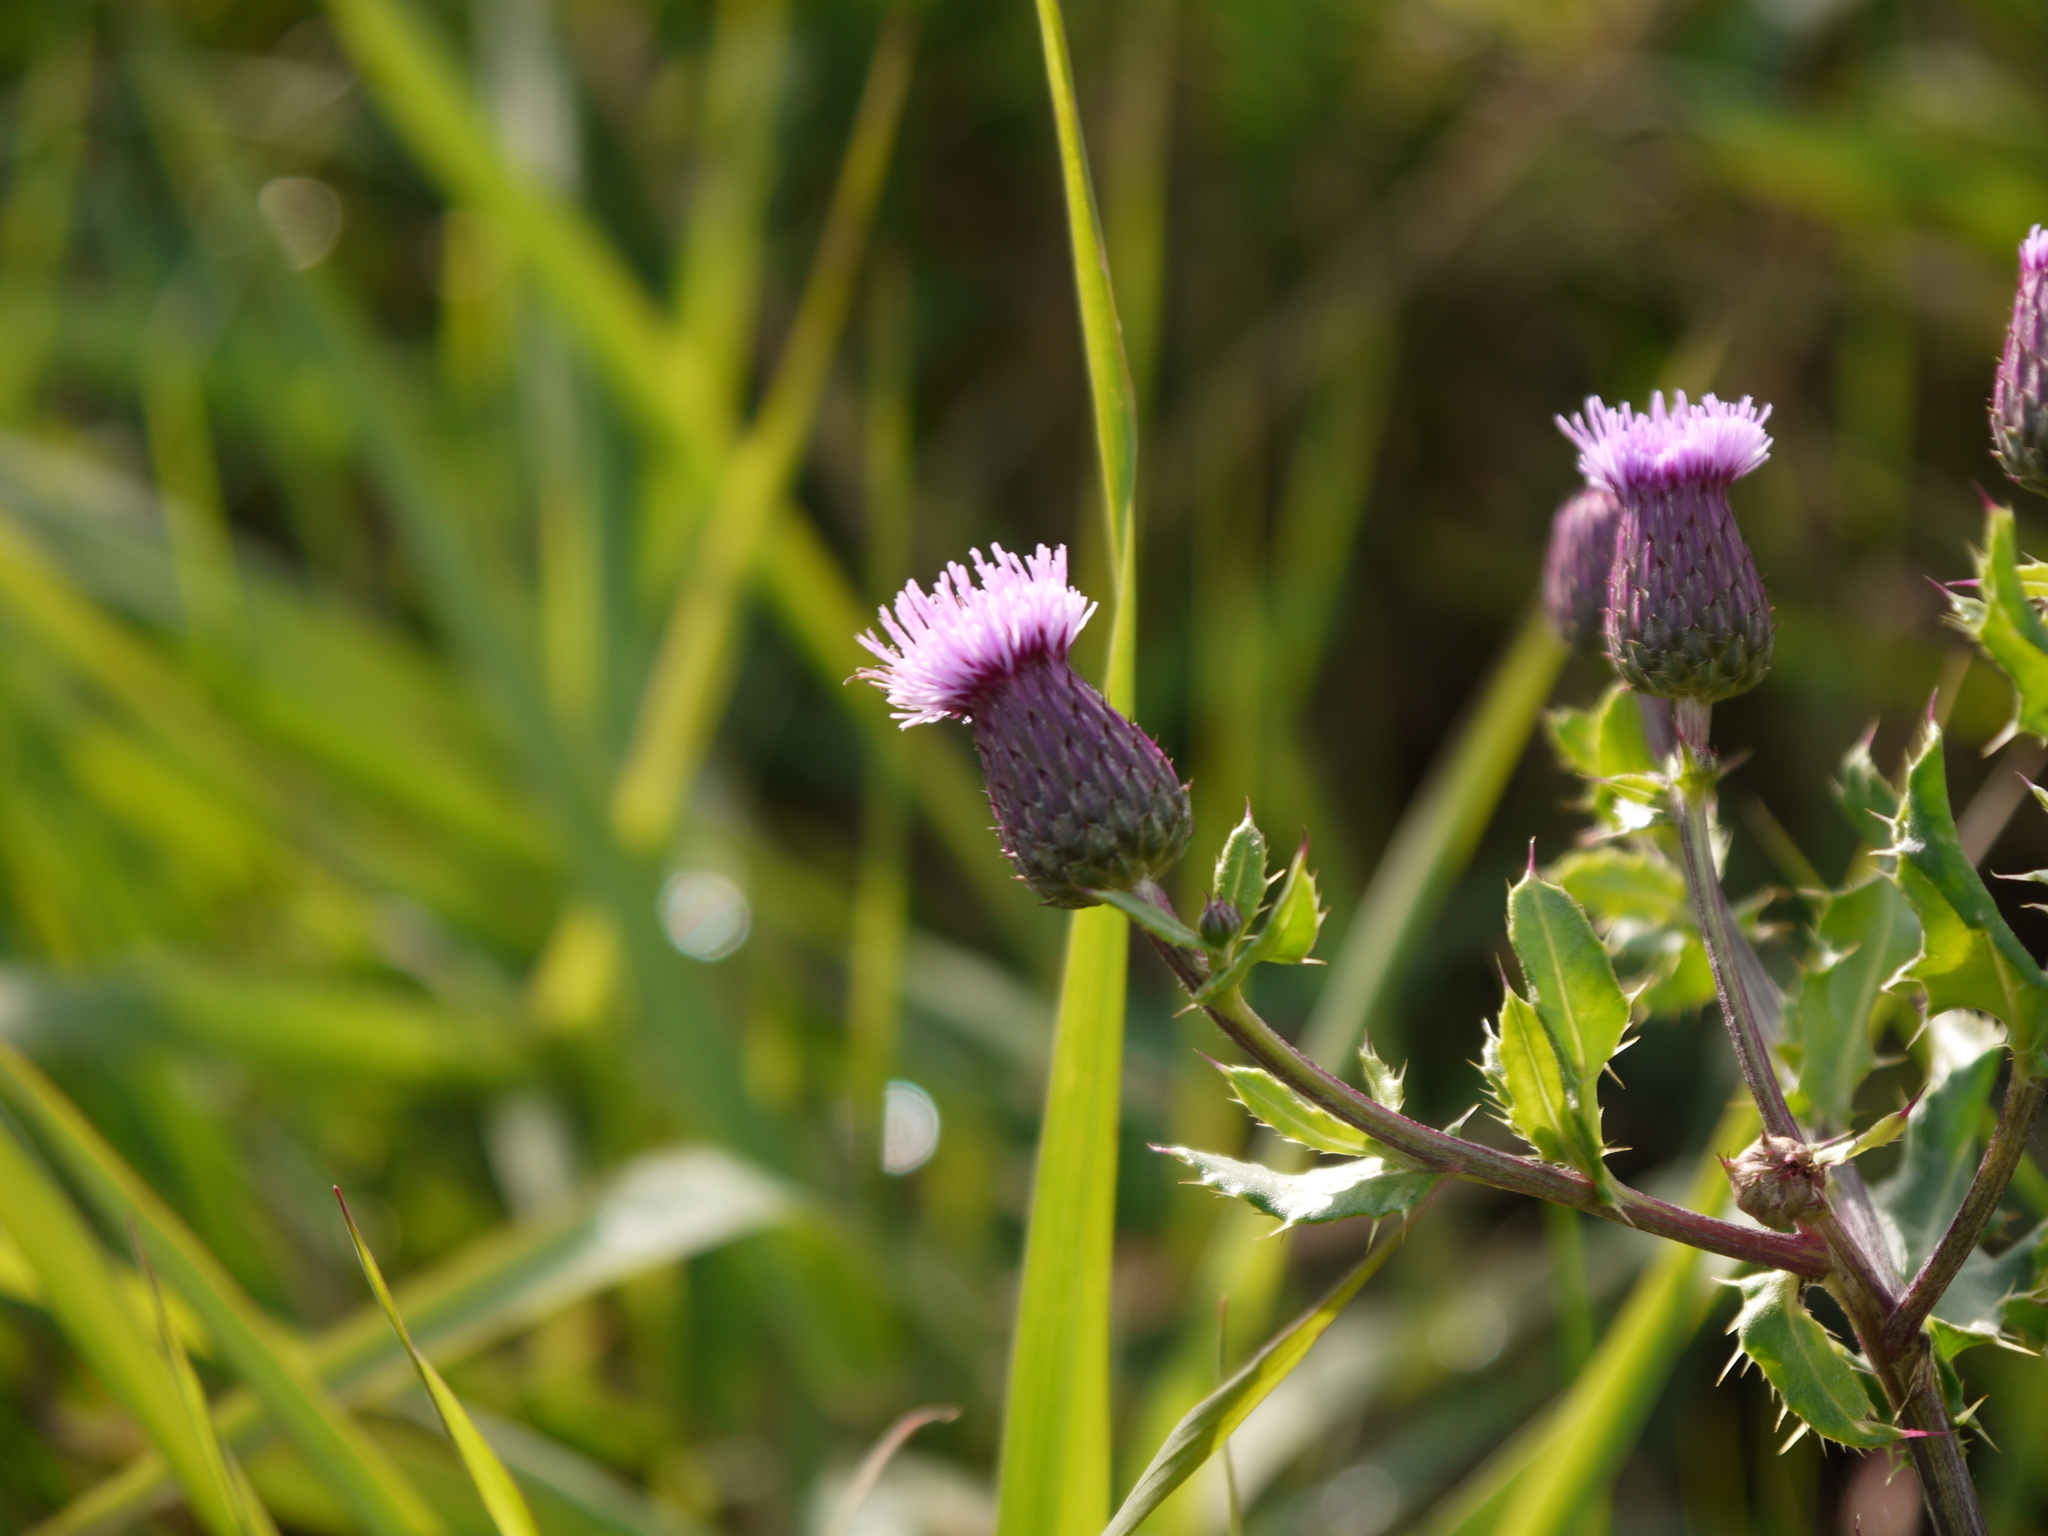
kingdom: Plantae
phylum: Tracheophyta
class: Magnoliopsida
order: Asterales
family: Asteraceae
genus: Cirsium
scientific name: Cirsium arvense
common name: Creeping thistle
